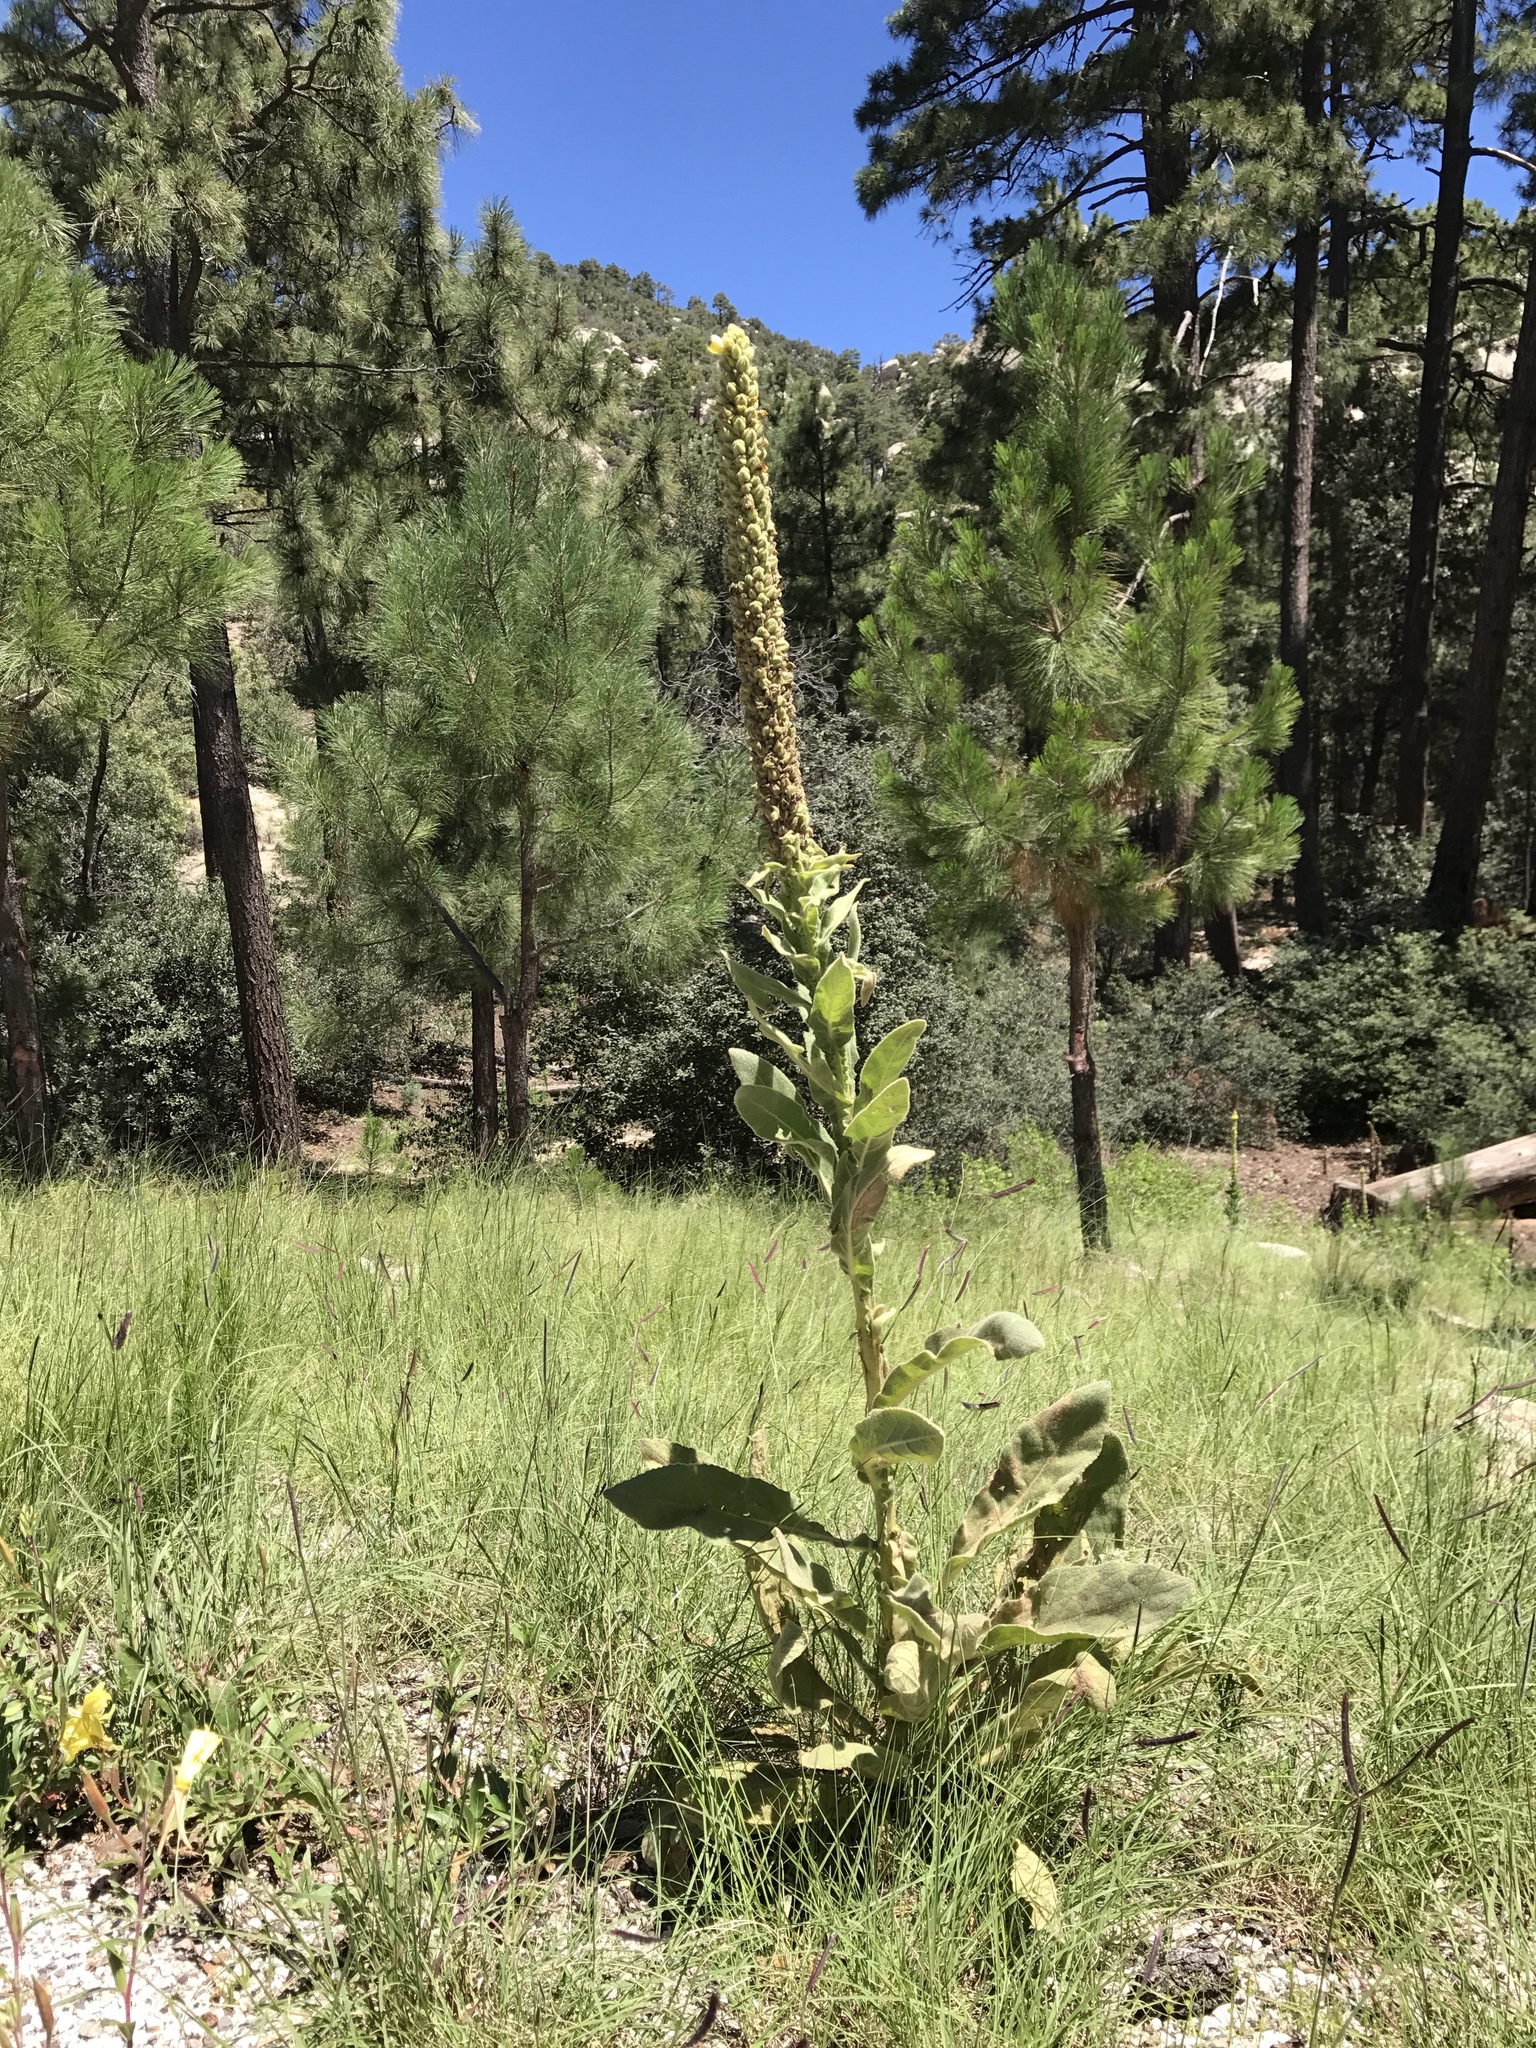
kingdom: Plantae
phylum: Tracheophyta
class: Magnoliopsida
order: Lamiales
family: Scrophulariaceae
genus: Verbascum
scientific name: Verbascum thapsus
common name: Common mullein
